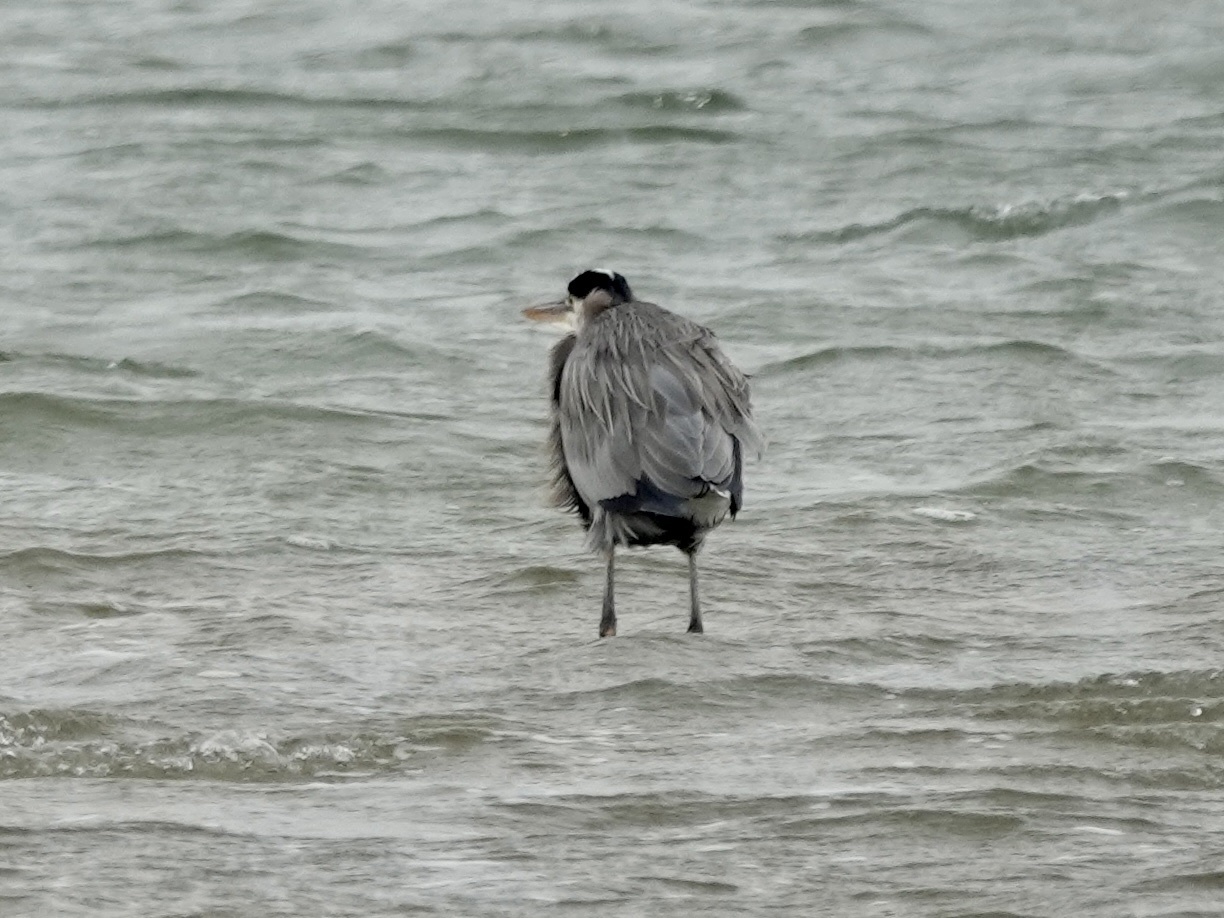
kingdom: Animalia
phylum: Chordata
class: Aves
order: Pelecaniformes
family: Ardeidae
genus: Ardea
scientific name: Ardea herodias
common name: Great blue heron
